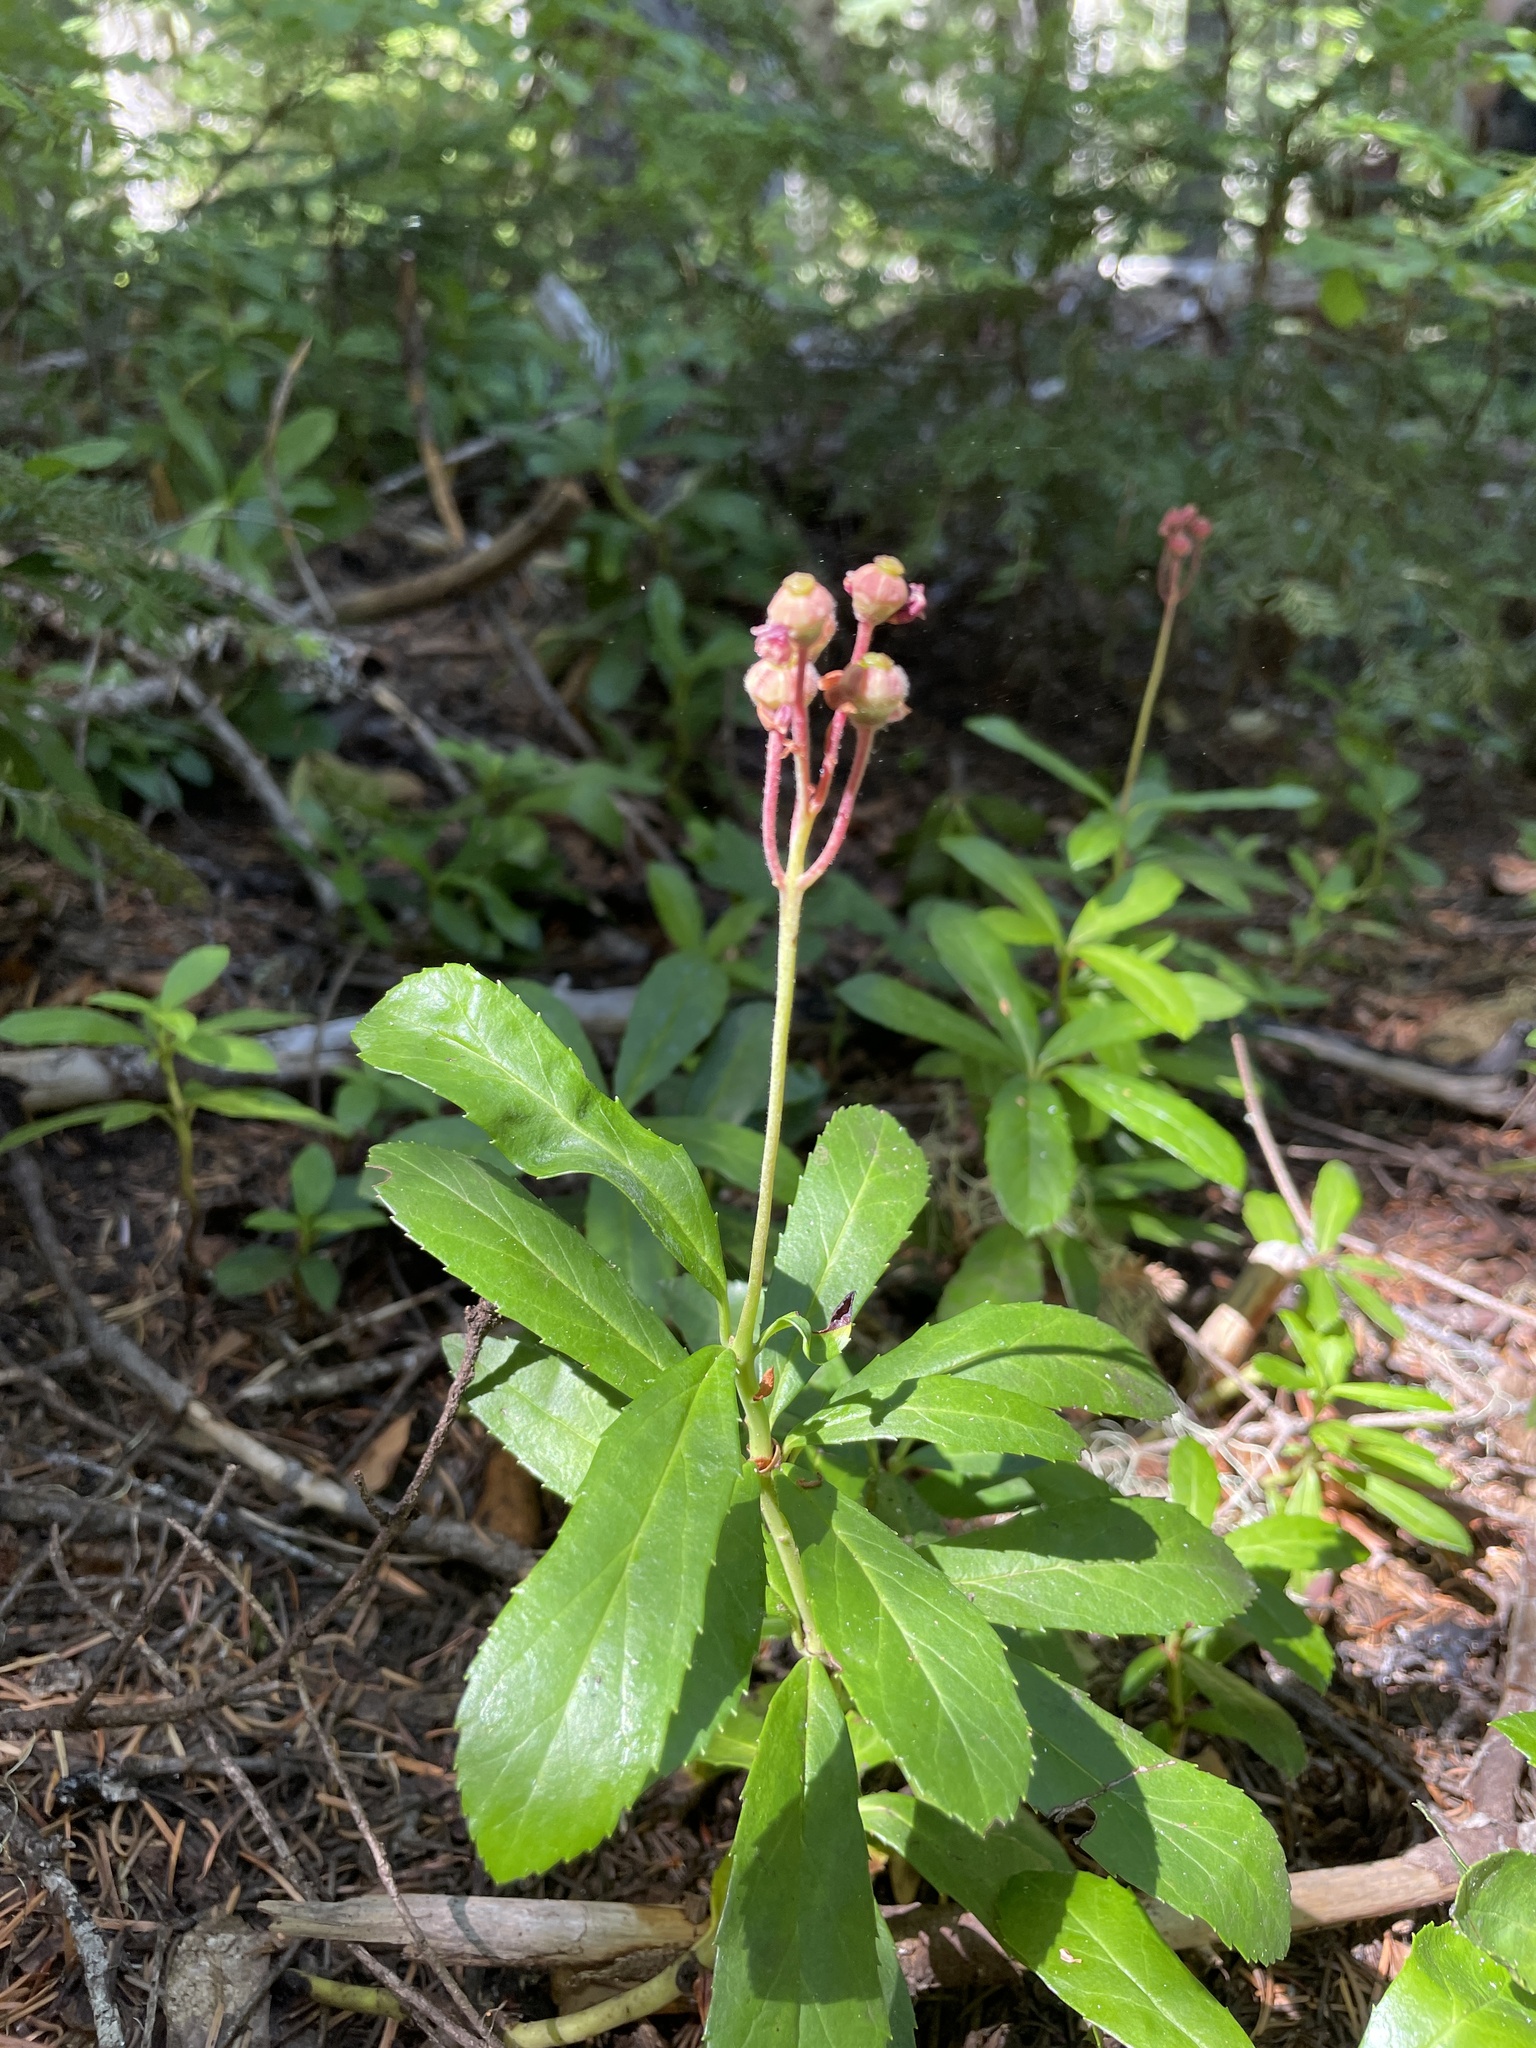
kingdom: Plantae
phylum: Tracheophyta
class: Magnoliopsida
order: Ericales
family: Ericaceae
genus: Chimaphila
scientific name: Chimaphila umbellata
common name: Pipsissewa
